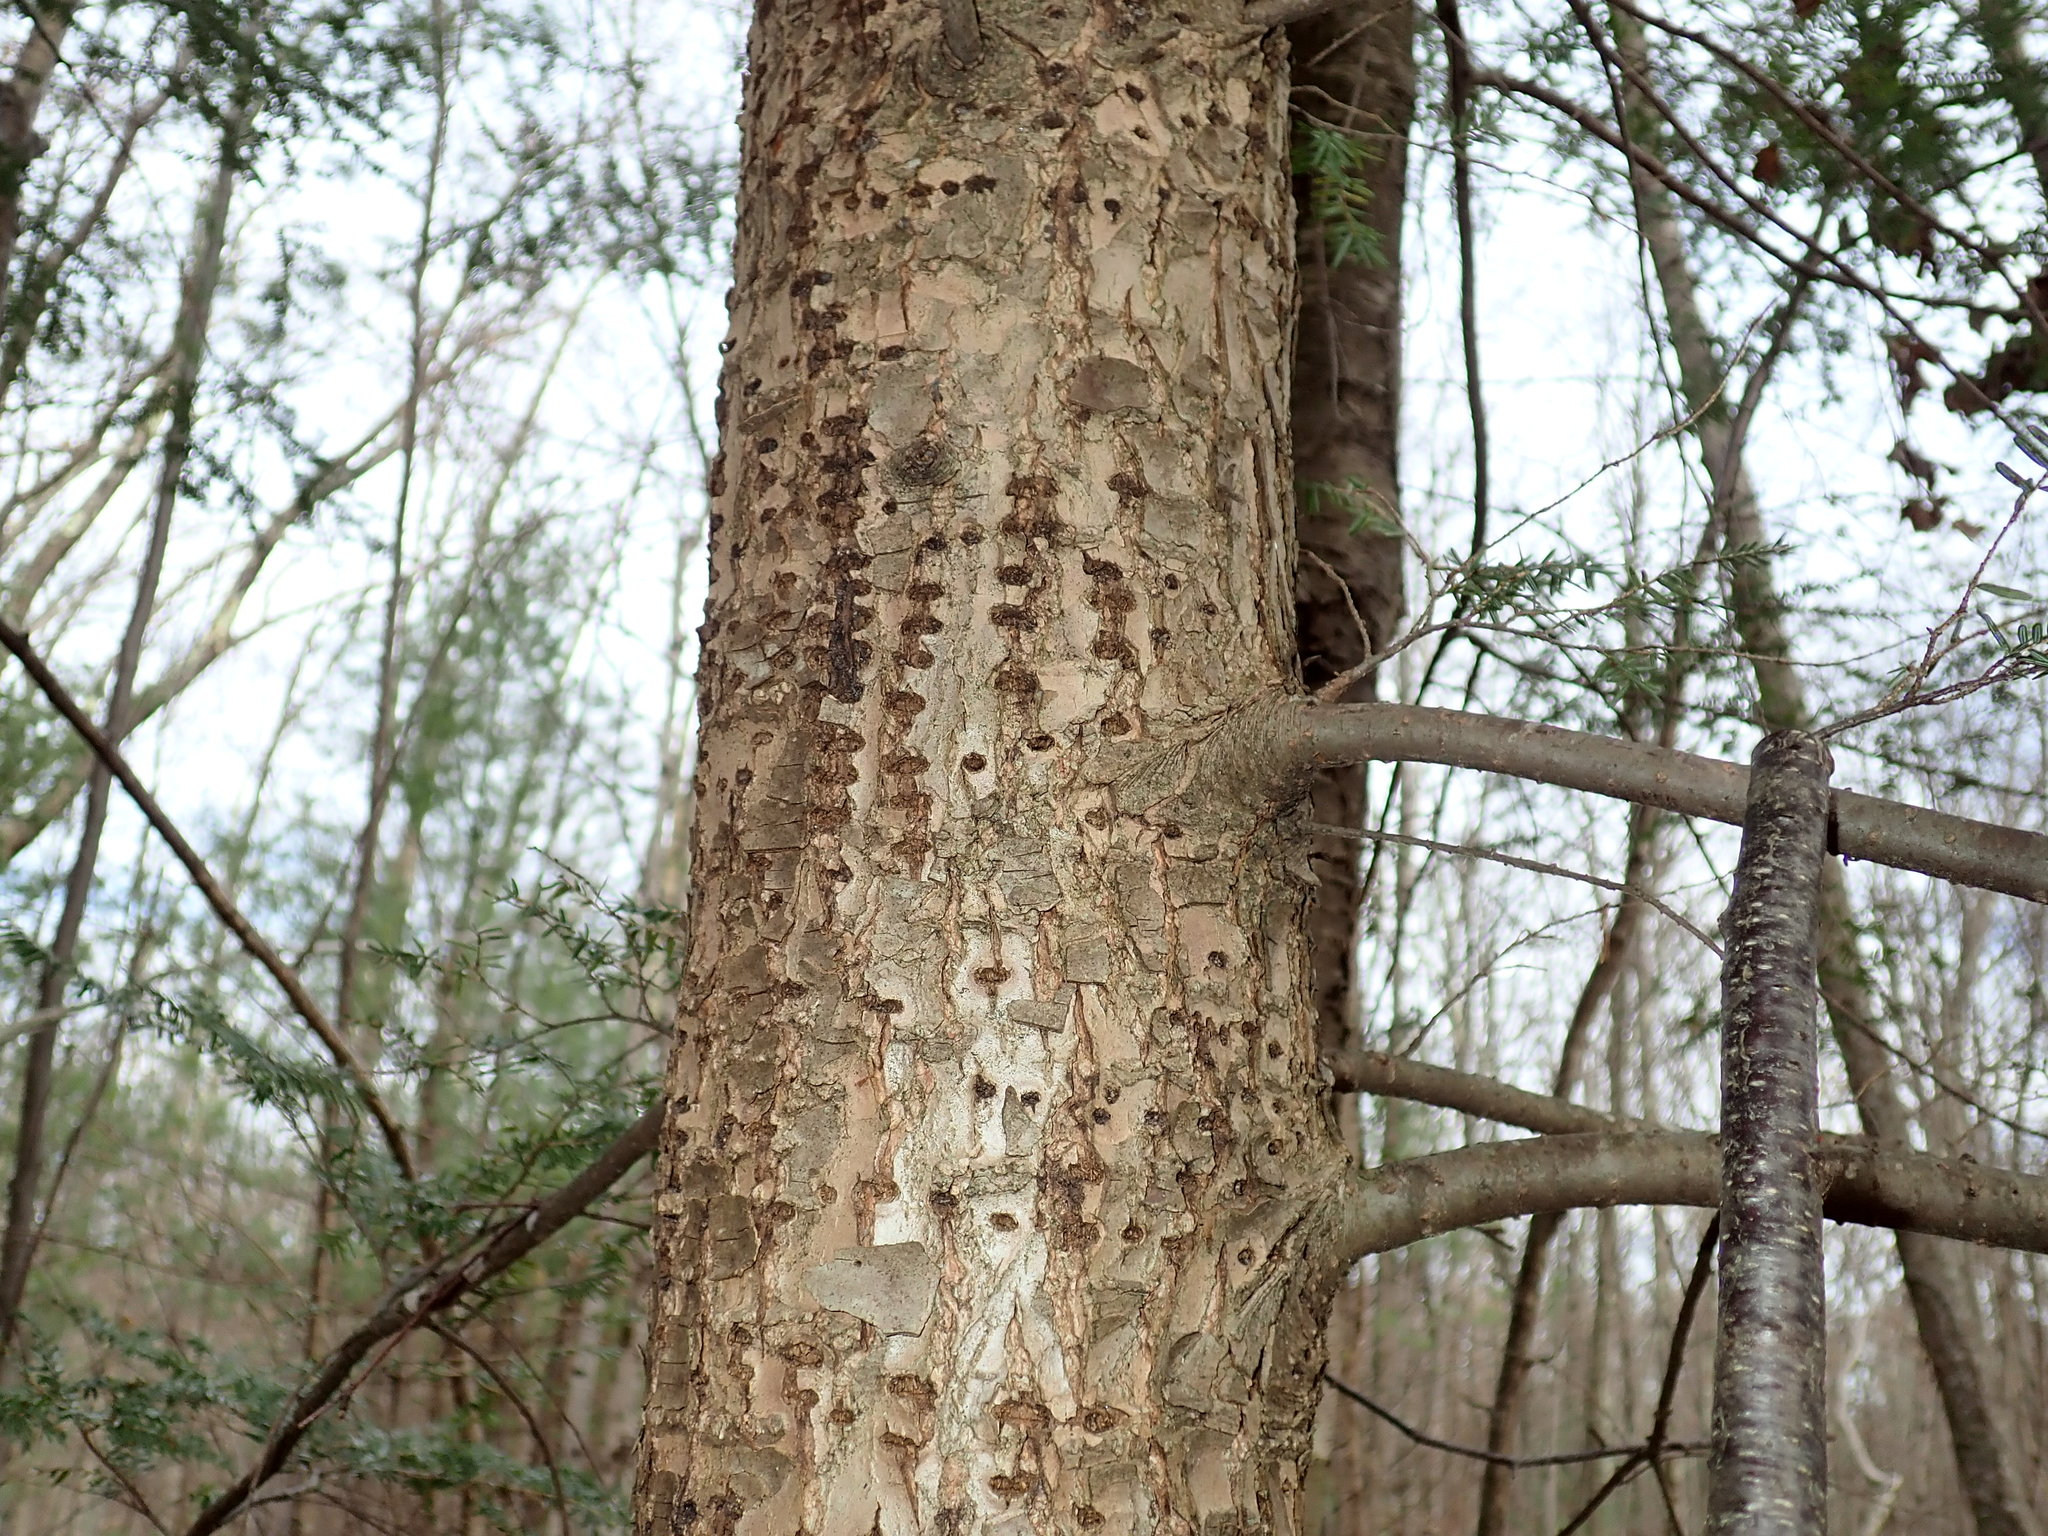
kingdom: Animalia
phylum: Chordata
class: Aves
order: Piciformes
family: Picidae
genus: Sphyrapicus
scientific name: Sphyrapicus varius
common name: Yellow-bellied sapsucker
